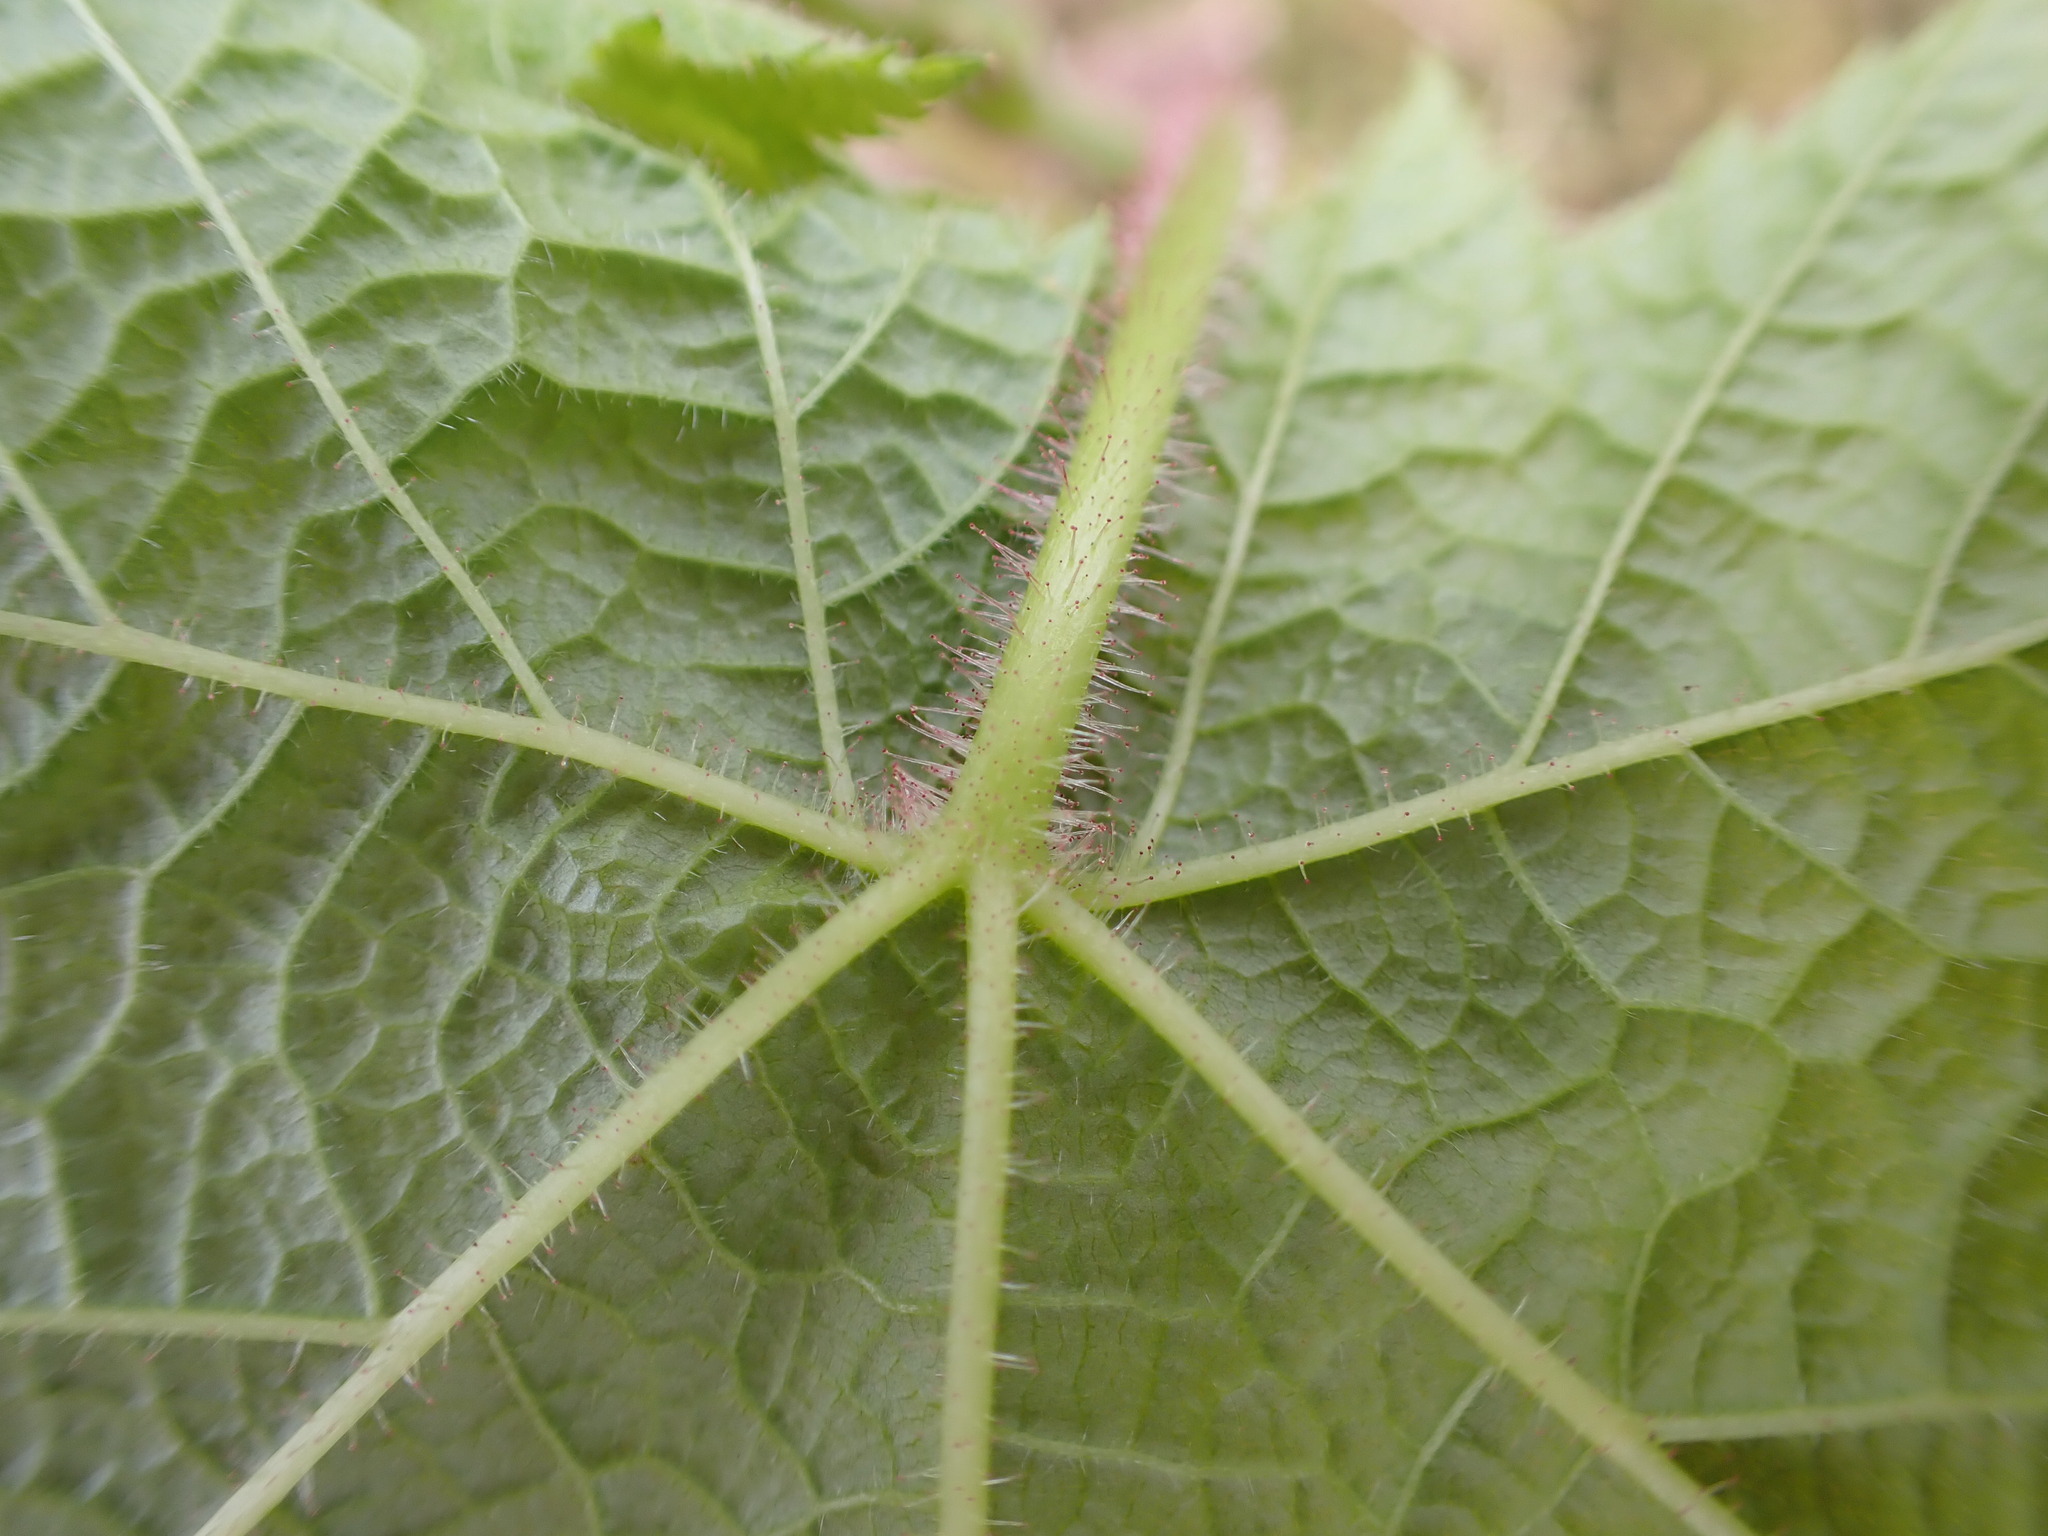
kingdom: Plantae
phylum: Tracheophyta
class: Magnoliopsida
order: Rosales
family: Rosaceae
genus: Rubus
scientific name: Rubus parviflorus
